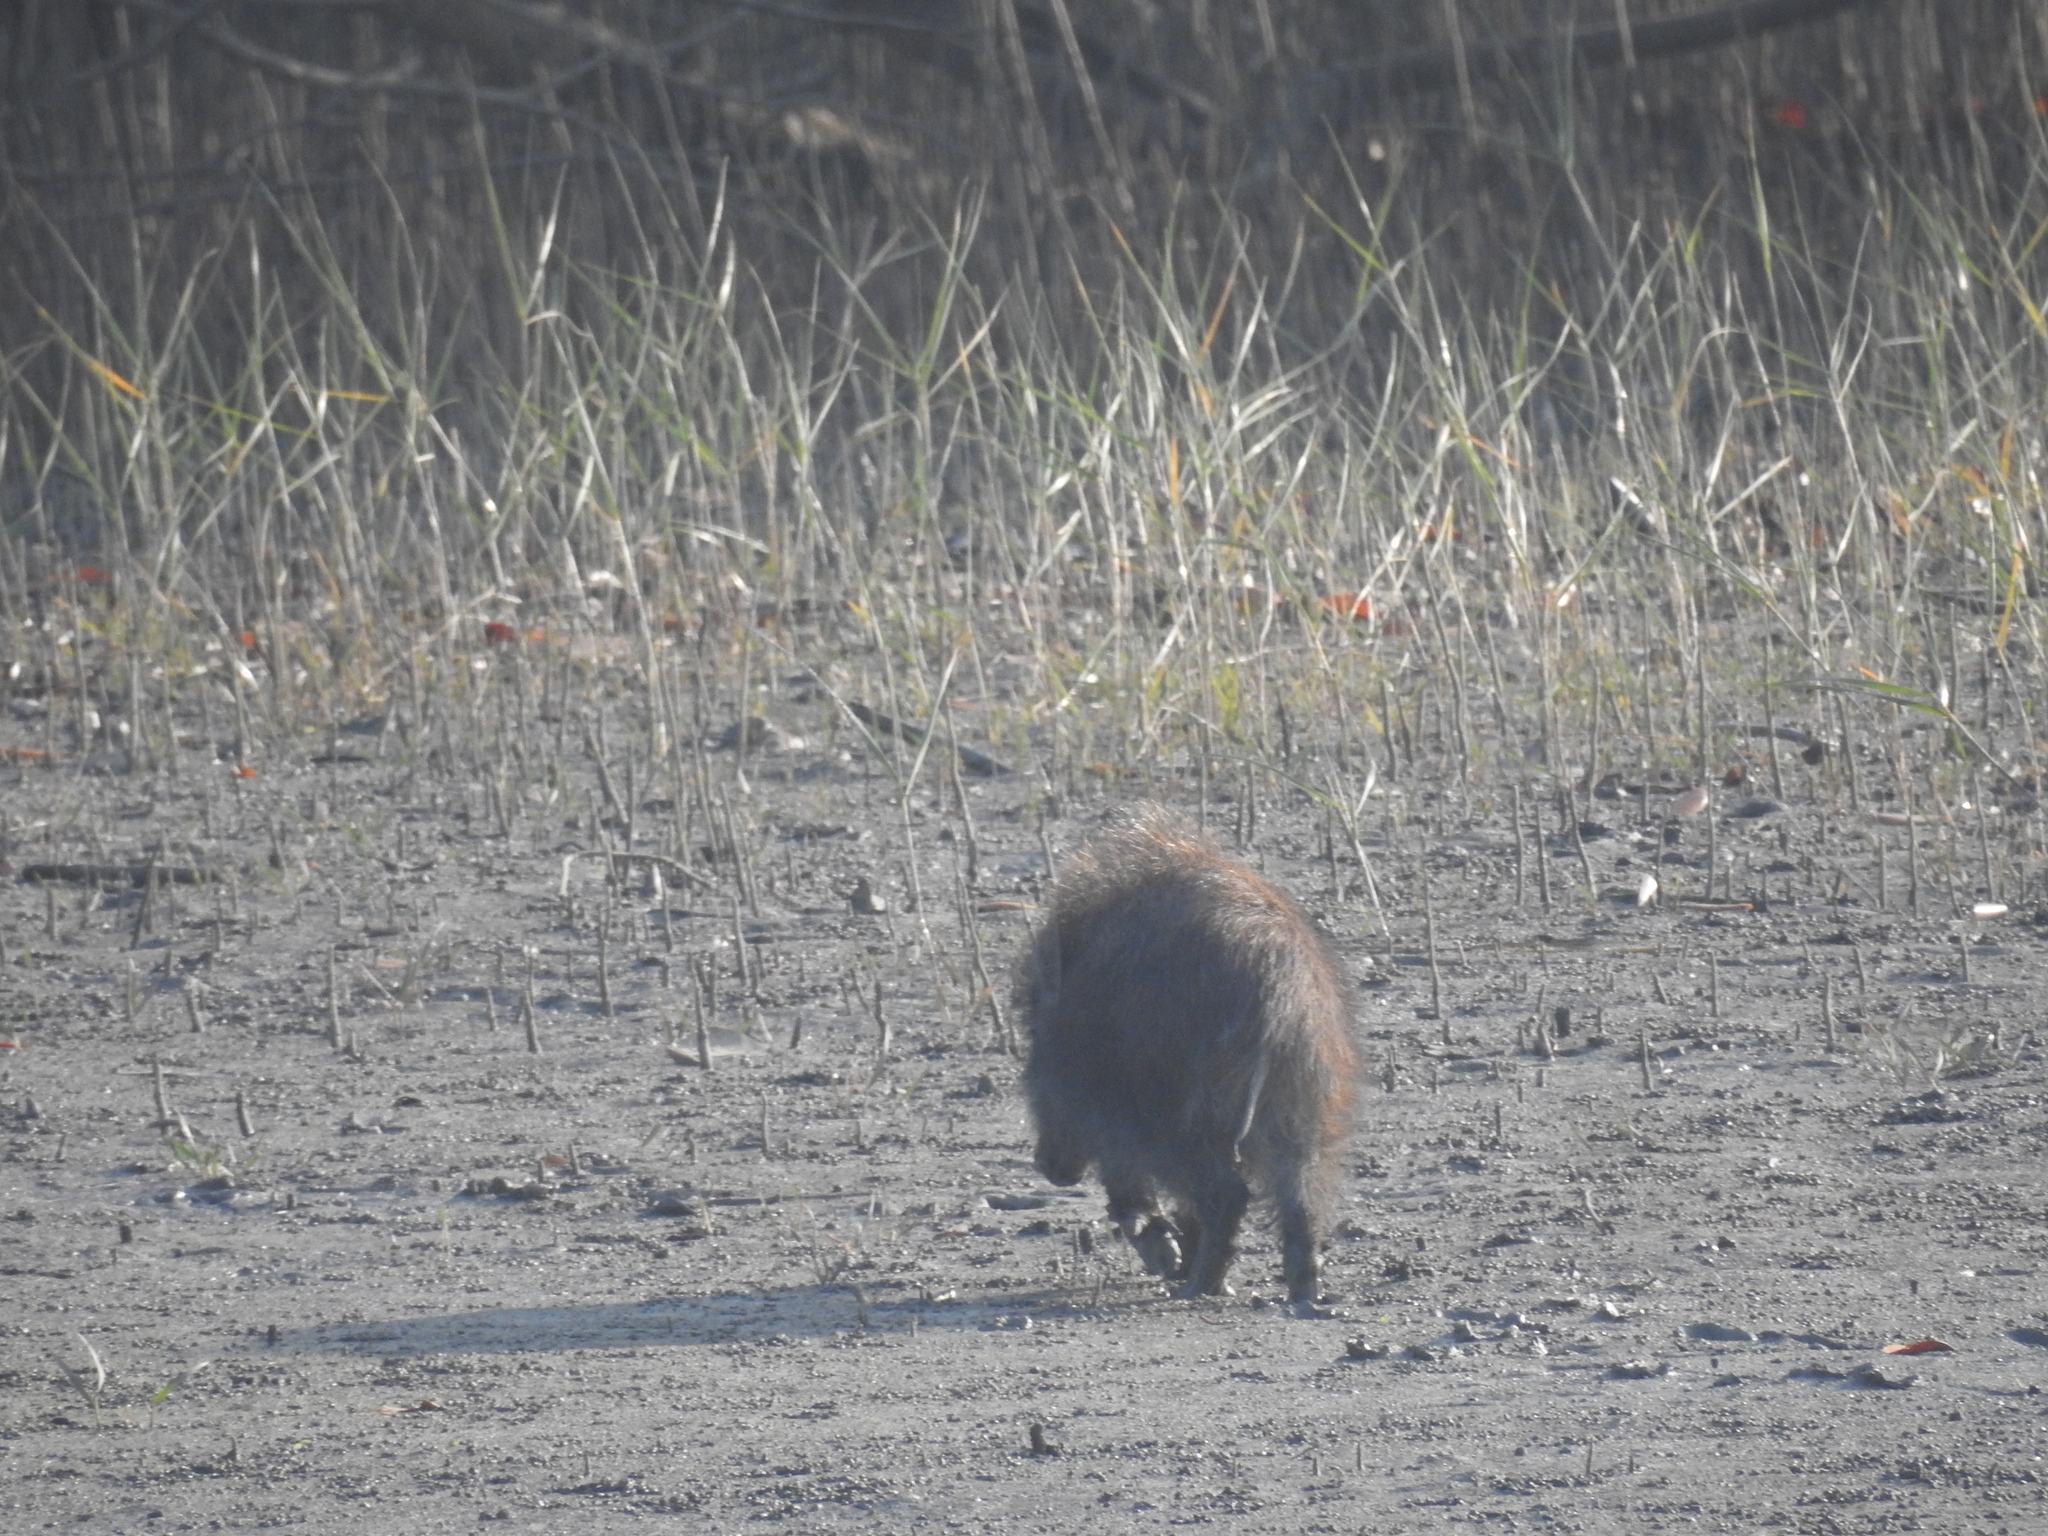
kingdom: Animalia
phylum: Chordata
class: Mammalia
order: Artiodactyla
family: Suidae
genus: Sus
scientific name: Sus scrofa
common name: Wild boar
